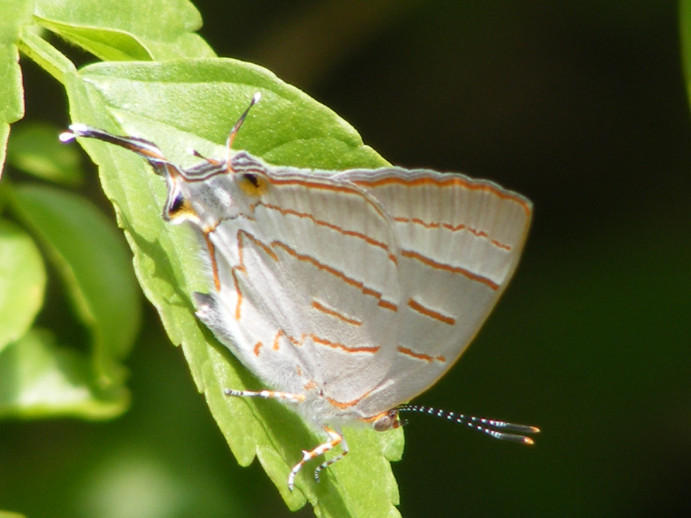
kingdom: Animalia
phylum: Arthropoda
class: Insecta
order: Lepidoptera
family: Lycaenidae
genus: Hemiolaus
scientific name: Hemiolaus caeculus
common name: Azure hairstreak
